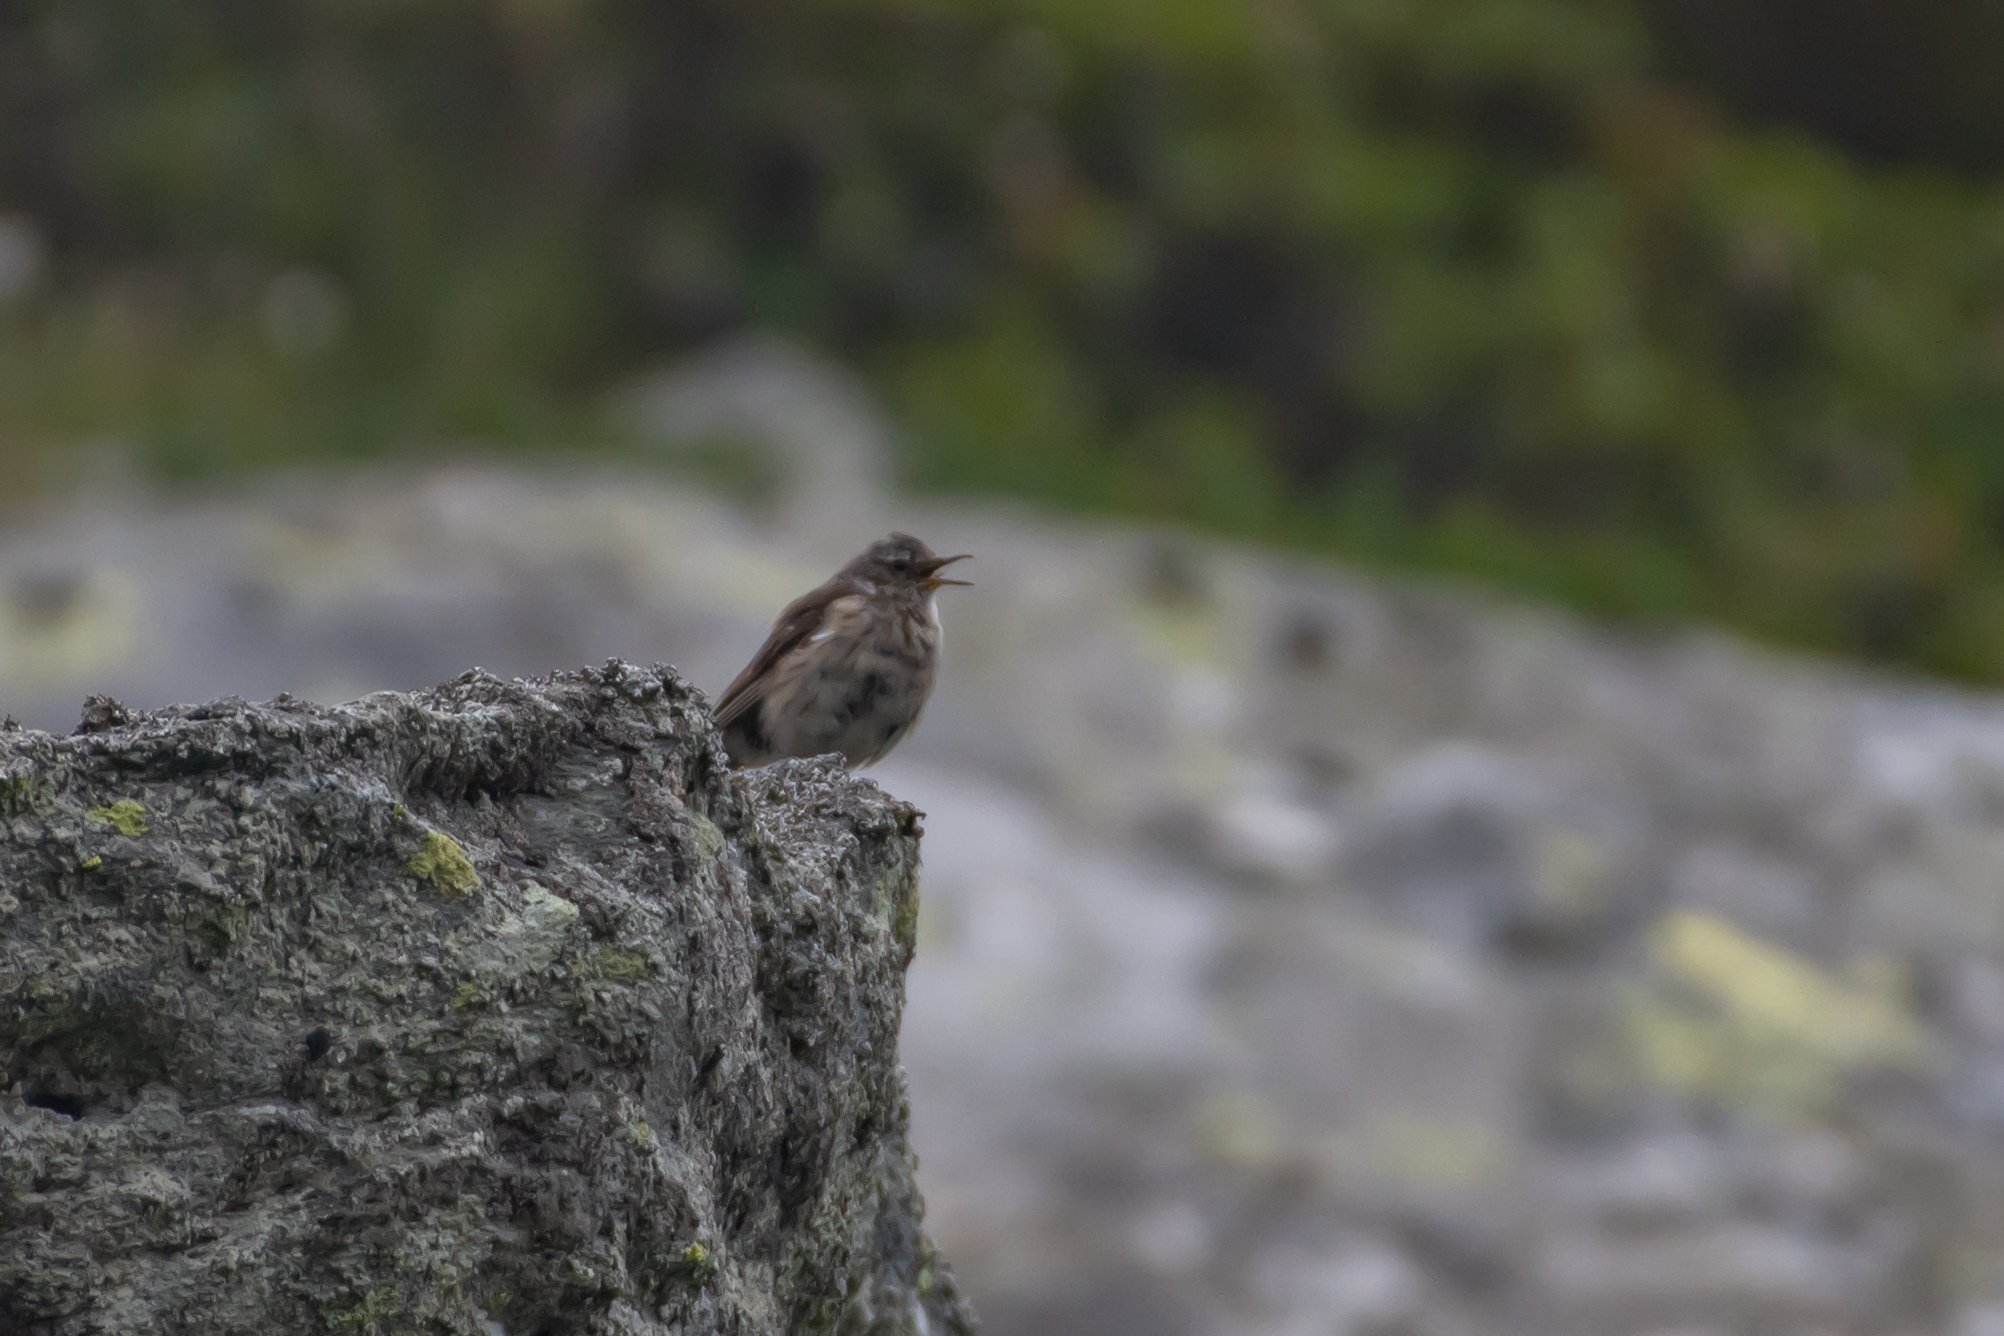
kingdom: Animalia
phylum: Chordata
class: Aves
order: Passeriformes
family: Motacillidae
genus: Anthus
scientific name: Anthus spinoletta
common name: Water pipit
